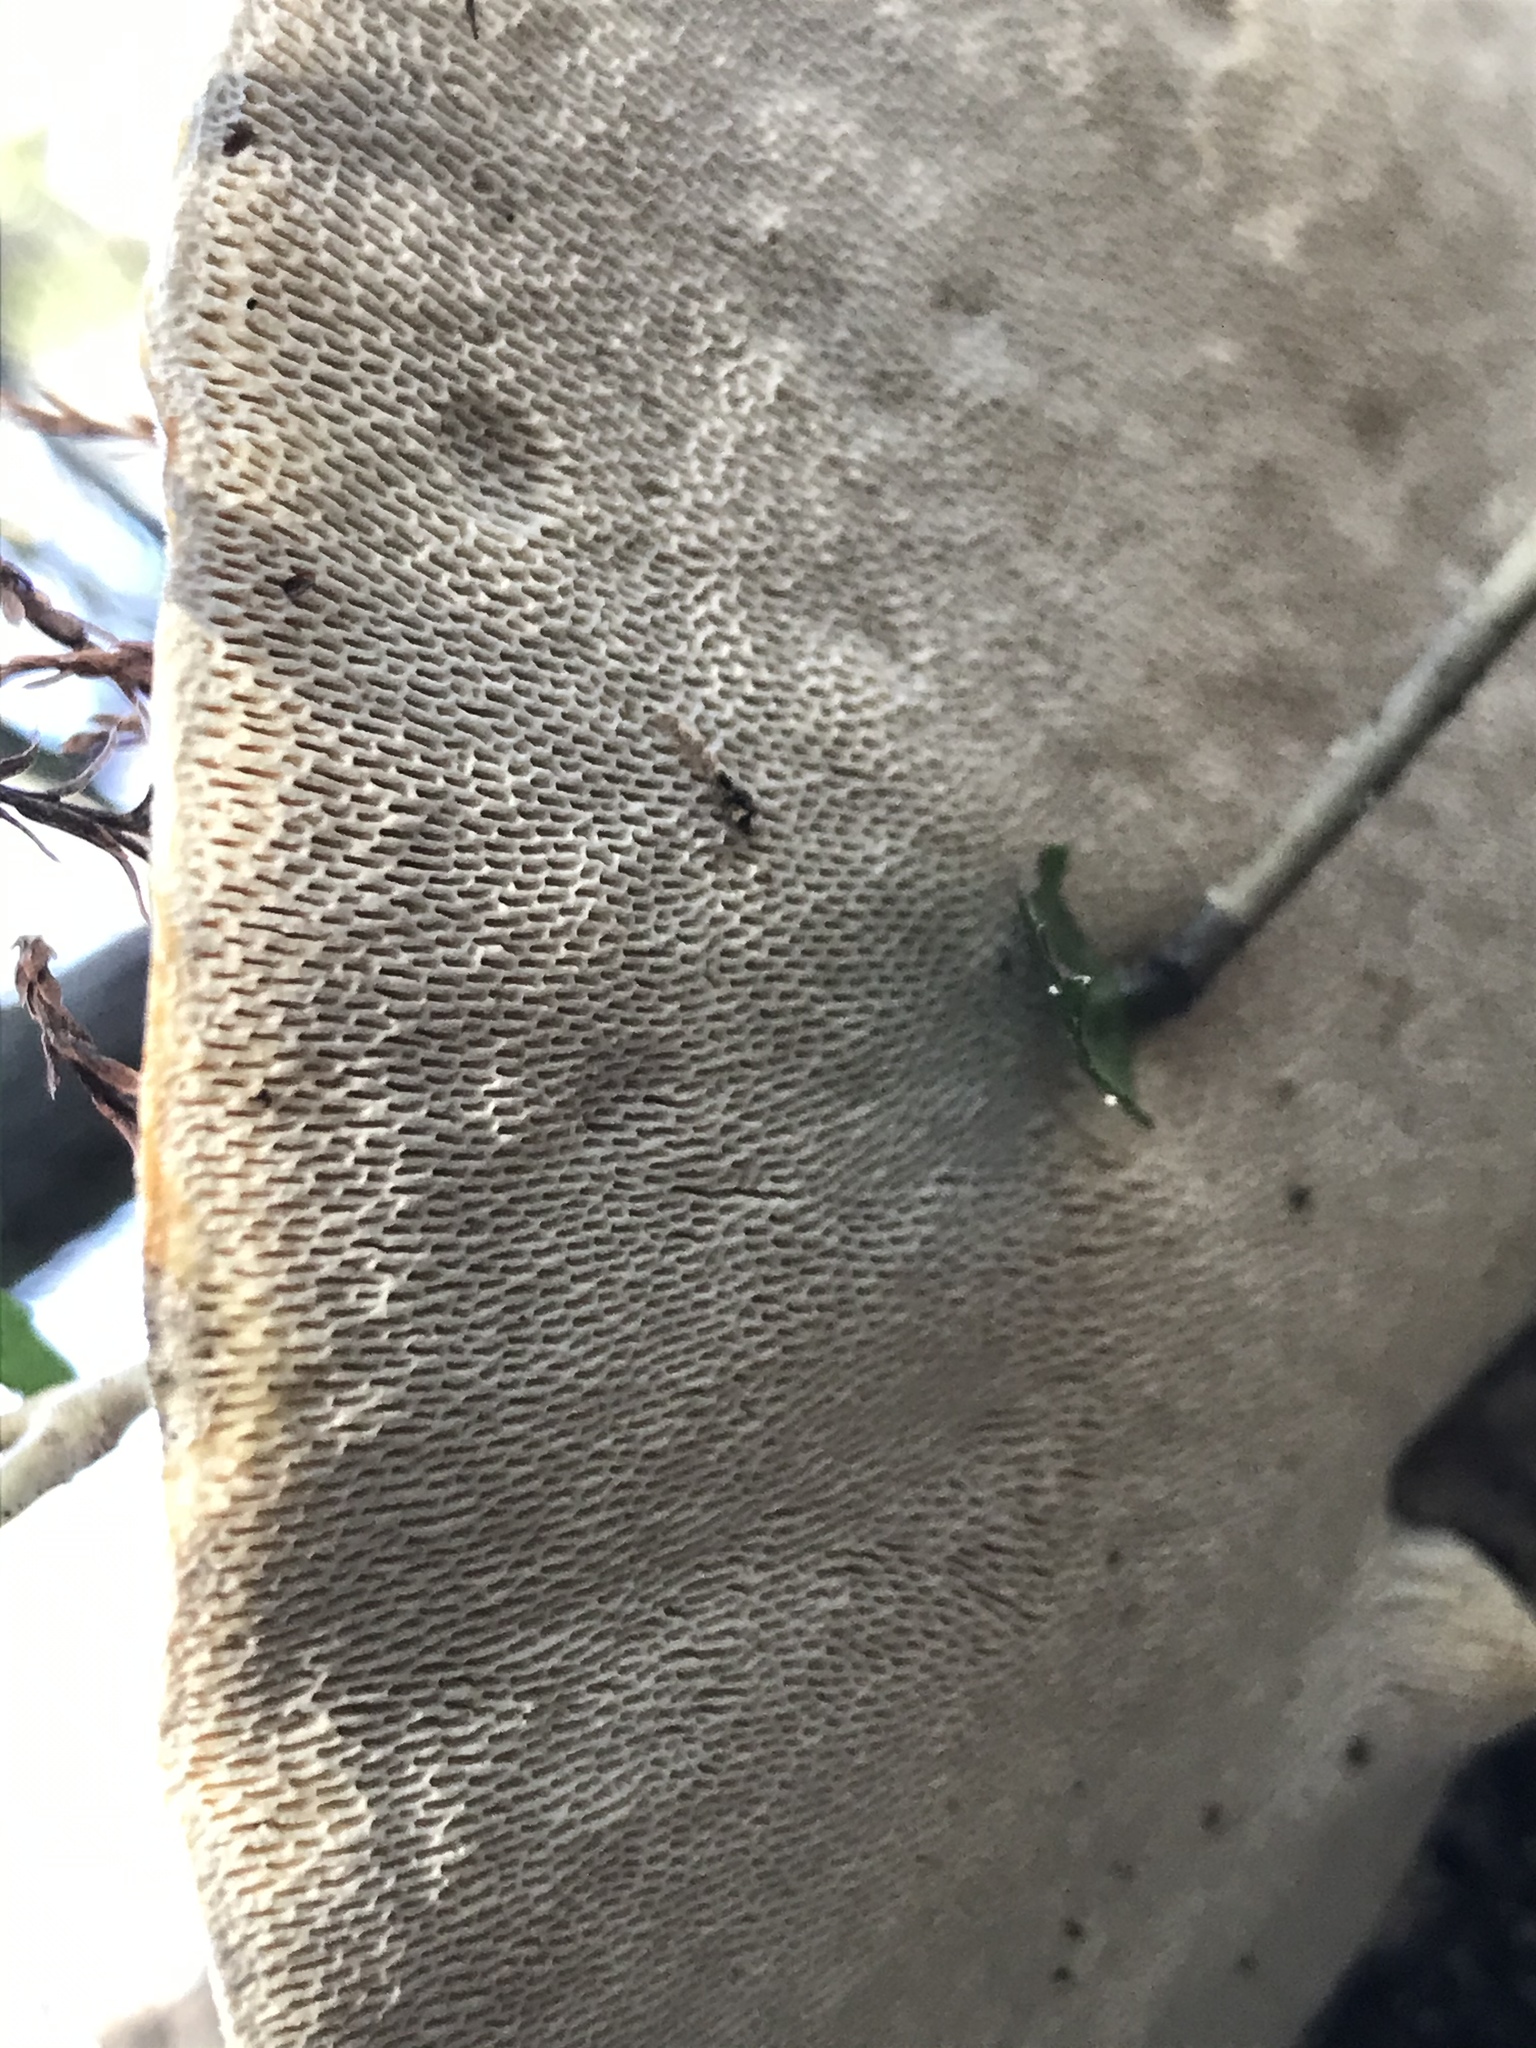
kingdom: Fungi
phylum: Basidiomycota
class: Agaricomycetes
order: Polyporales
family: Polyporaceae
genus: Trametes
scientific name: Trametes gibbosa
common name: Lumpy bracket
